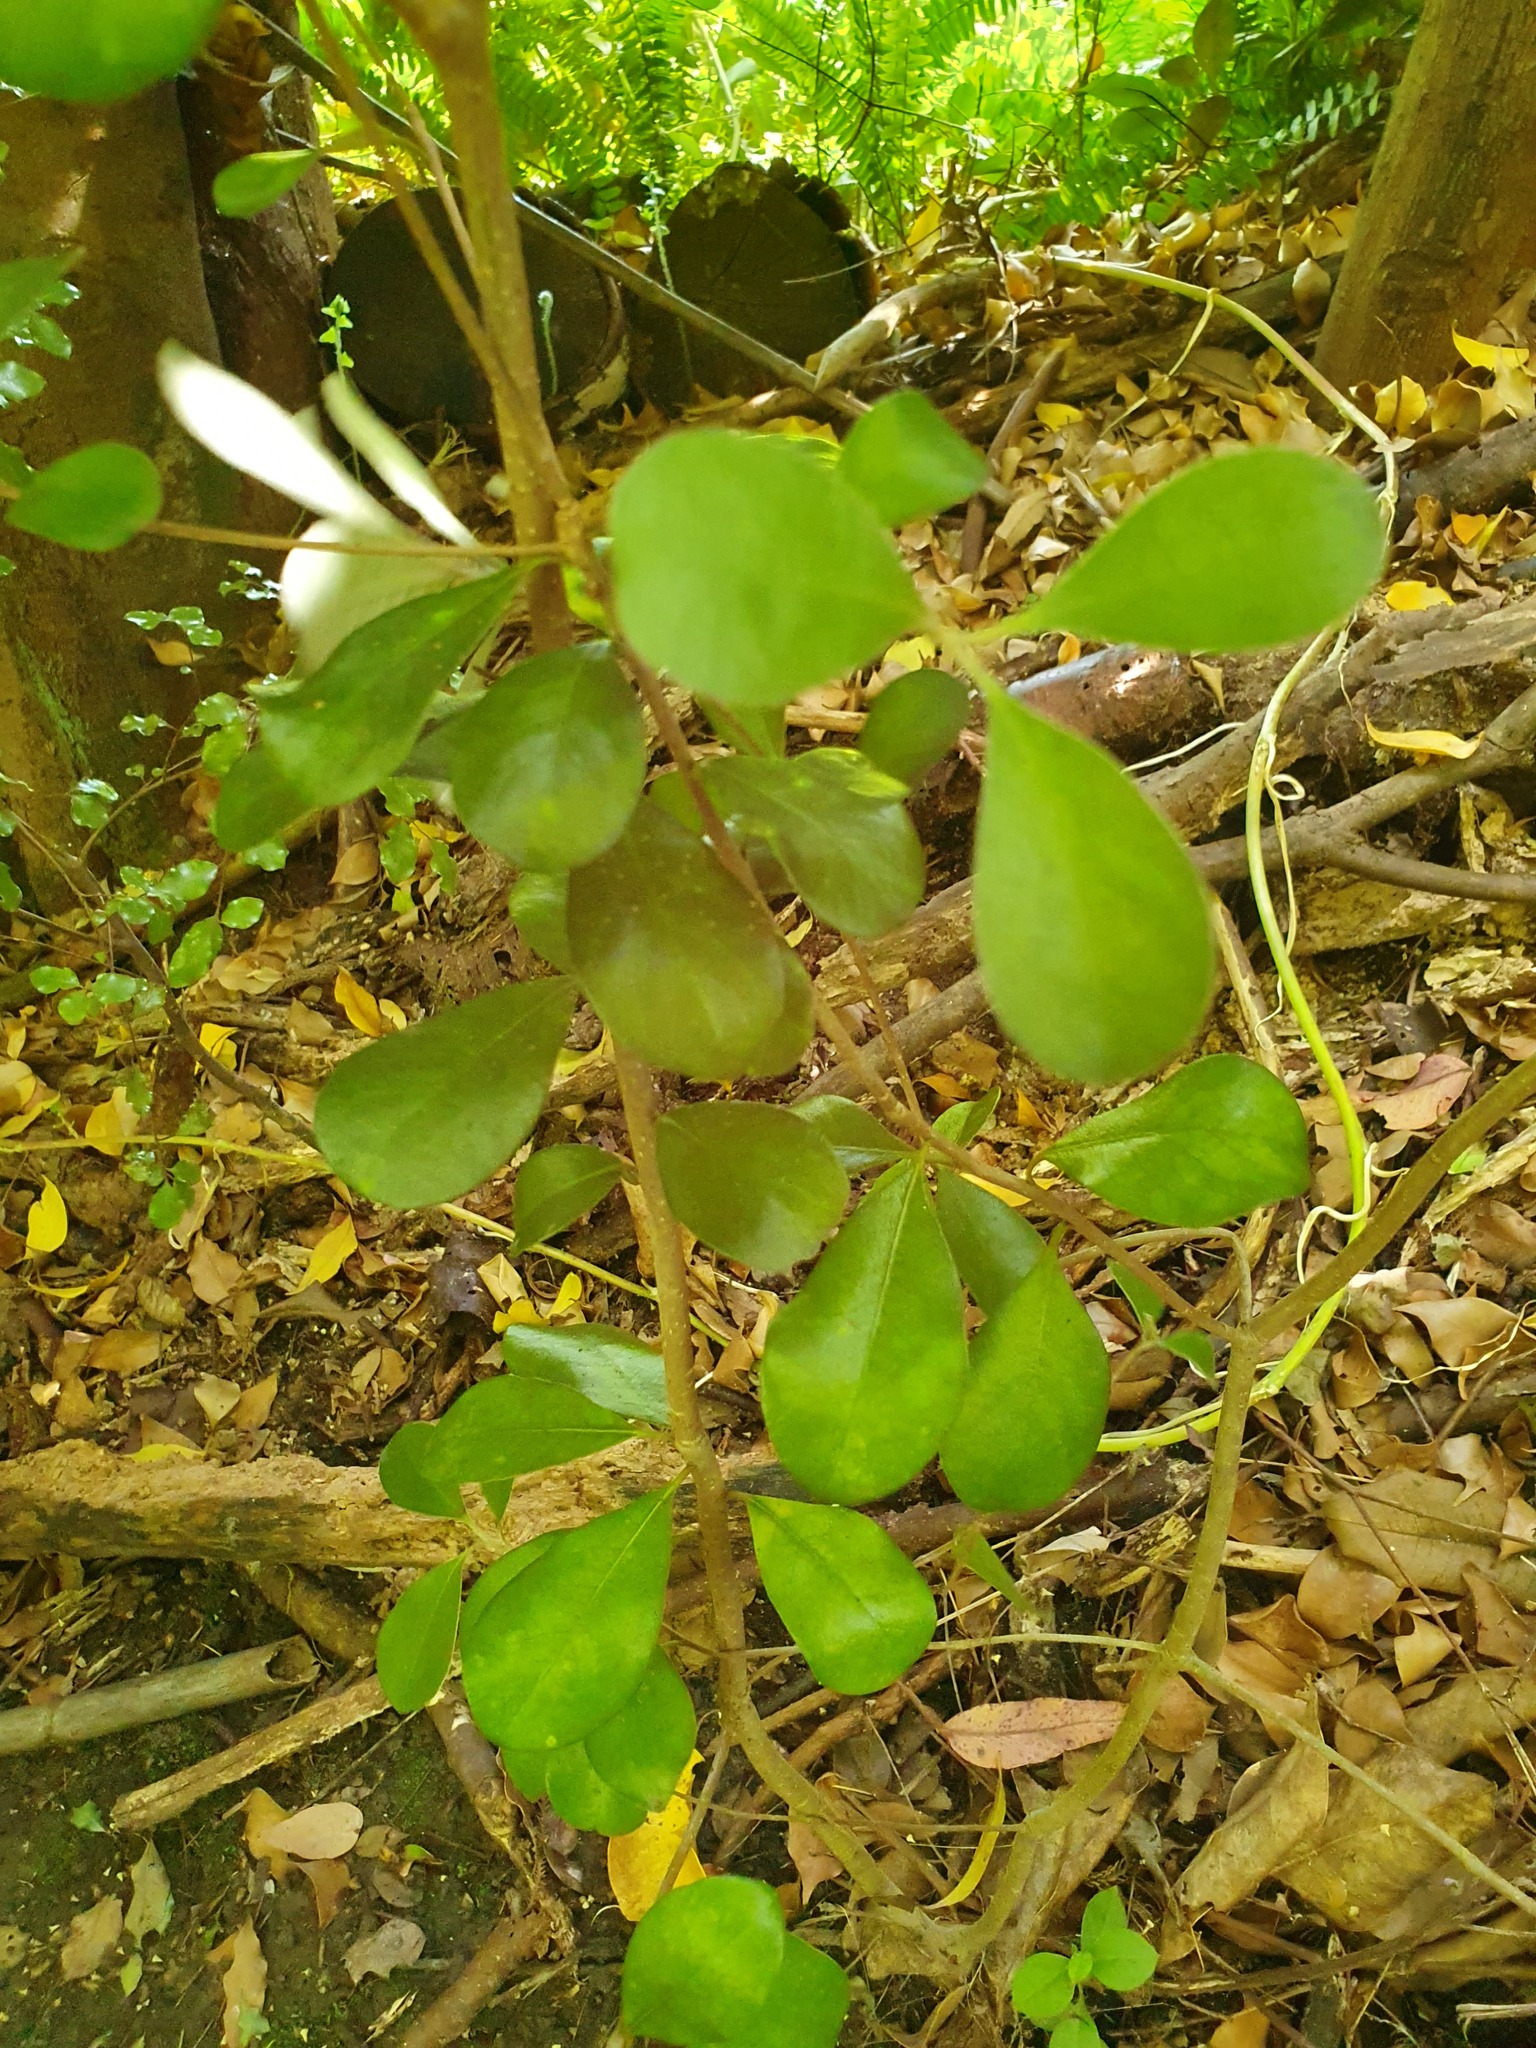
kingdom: Plantae
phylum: Tracheophyta
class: Magnoliopsida
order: Apiales
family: Pittosporaceae
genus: Pittosporum
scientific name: Pittosporum crassifolium
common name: Karo
